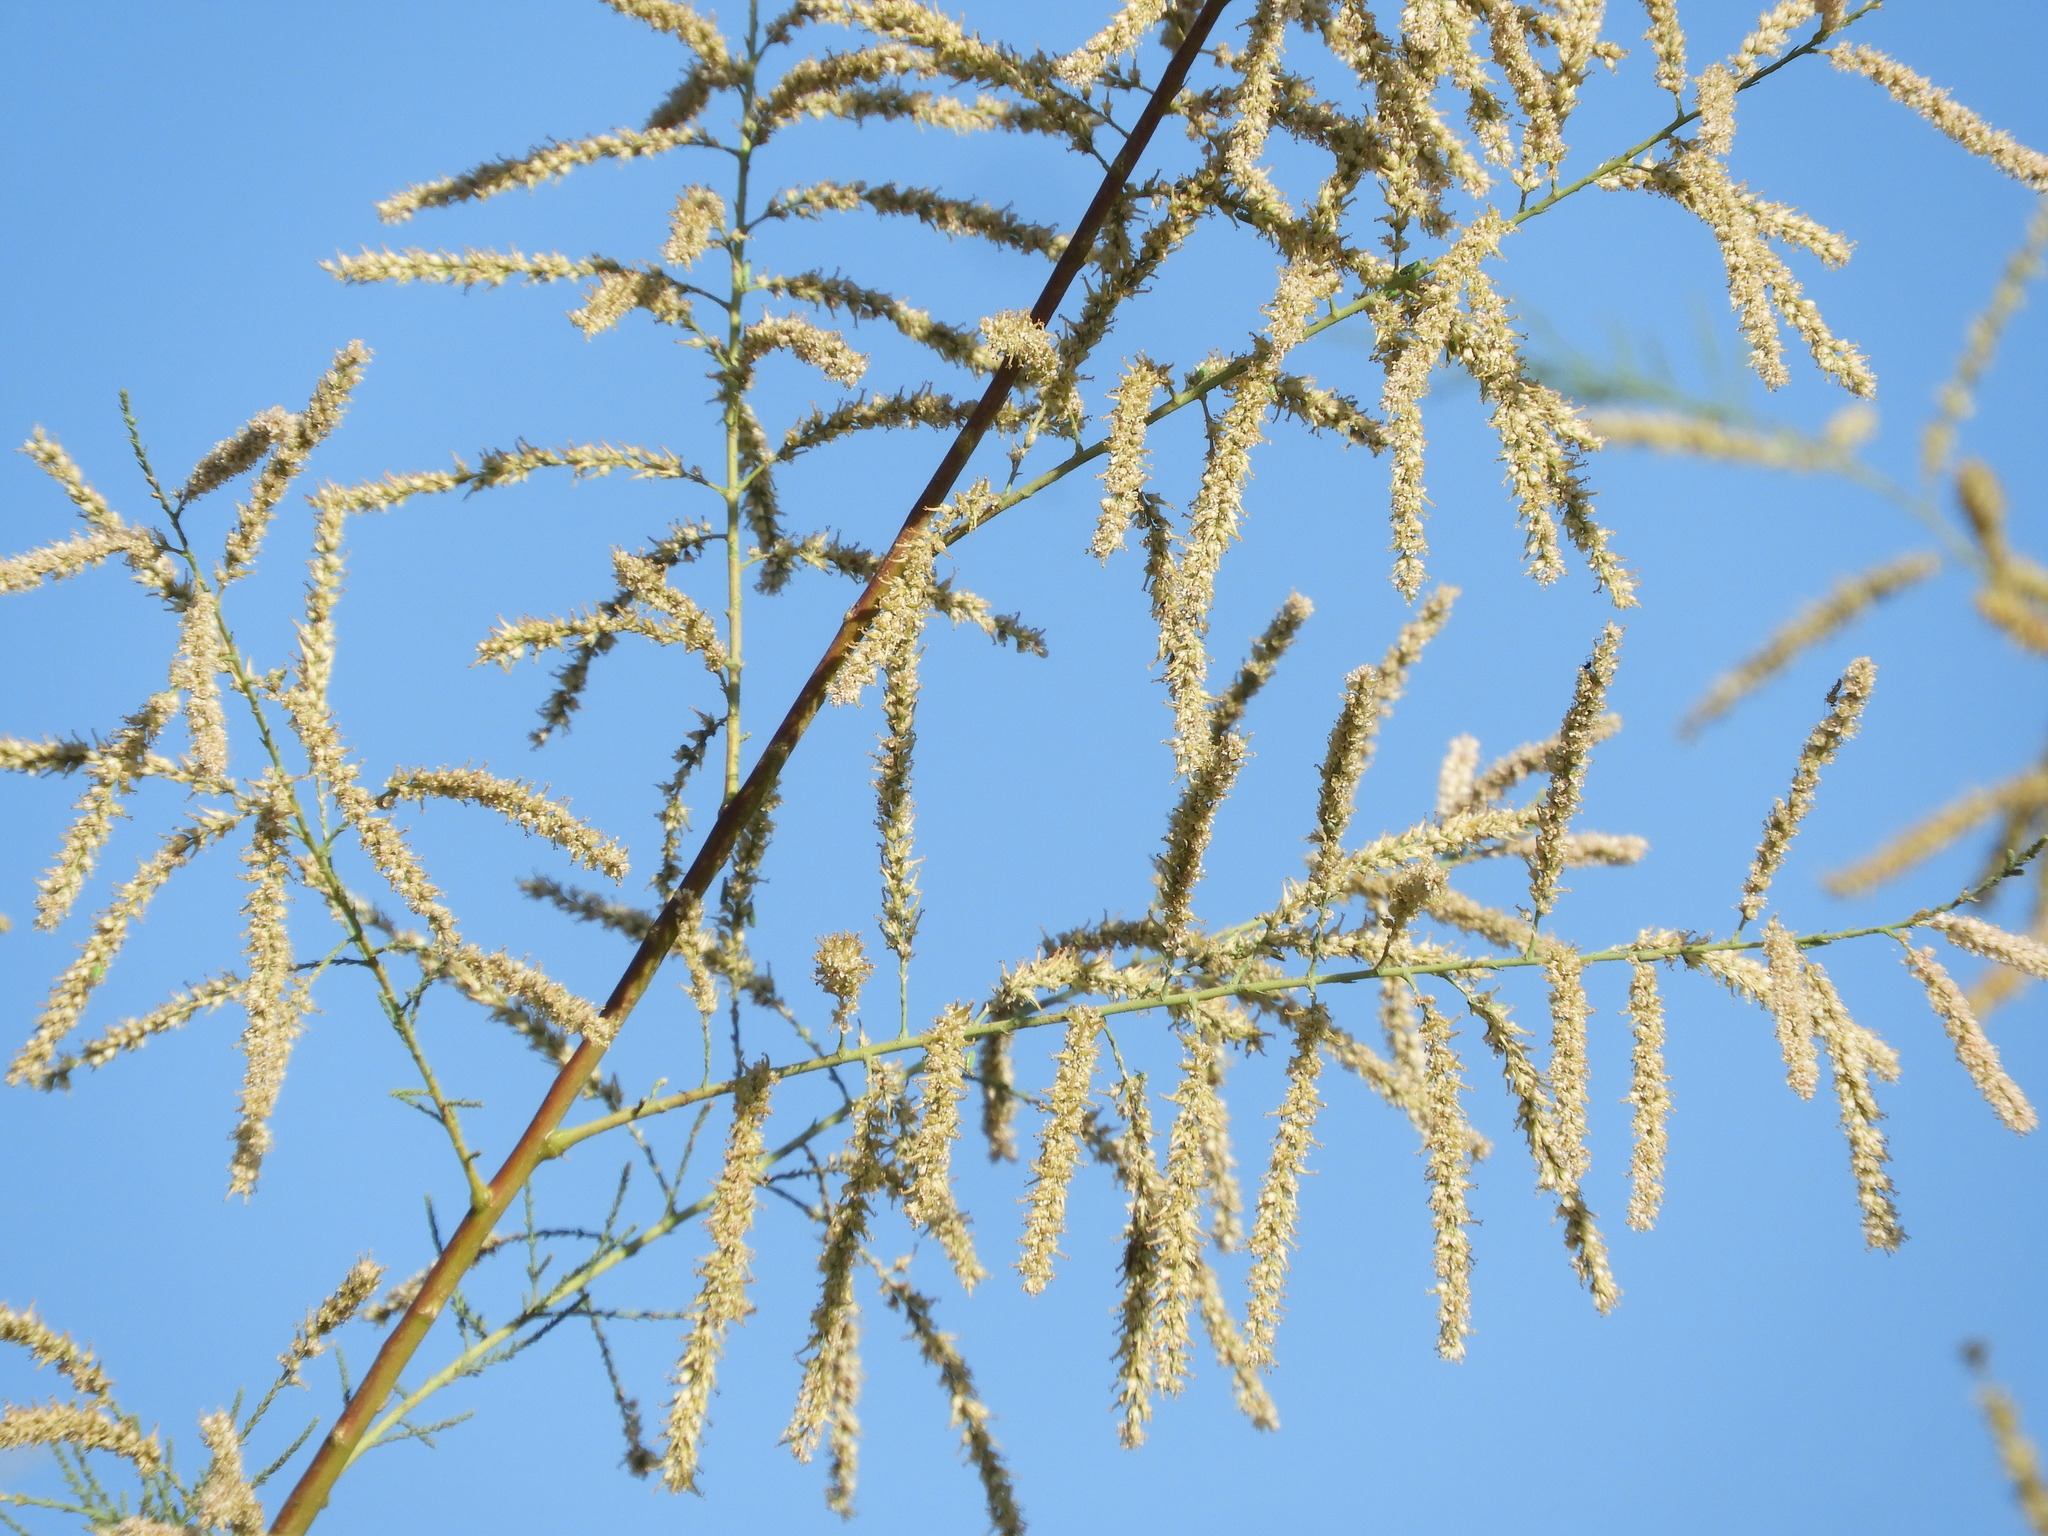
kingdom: Plantae
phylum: Tracheophyta
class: Magnoliopsida
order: Caryophyllales
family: Tamaricaceae
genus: Tamarix
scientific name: Tamarix ramosissima
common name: Pink tamarisk
